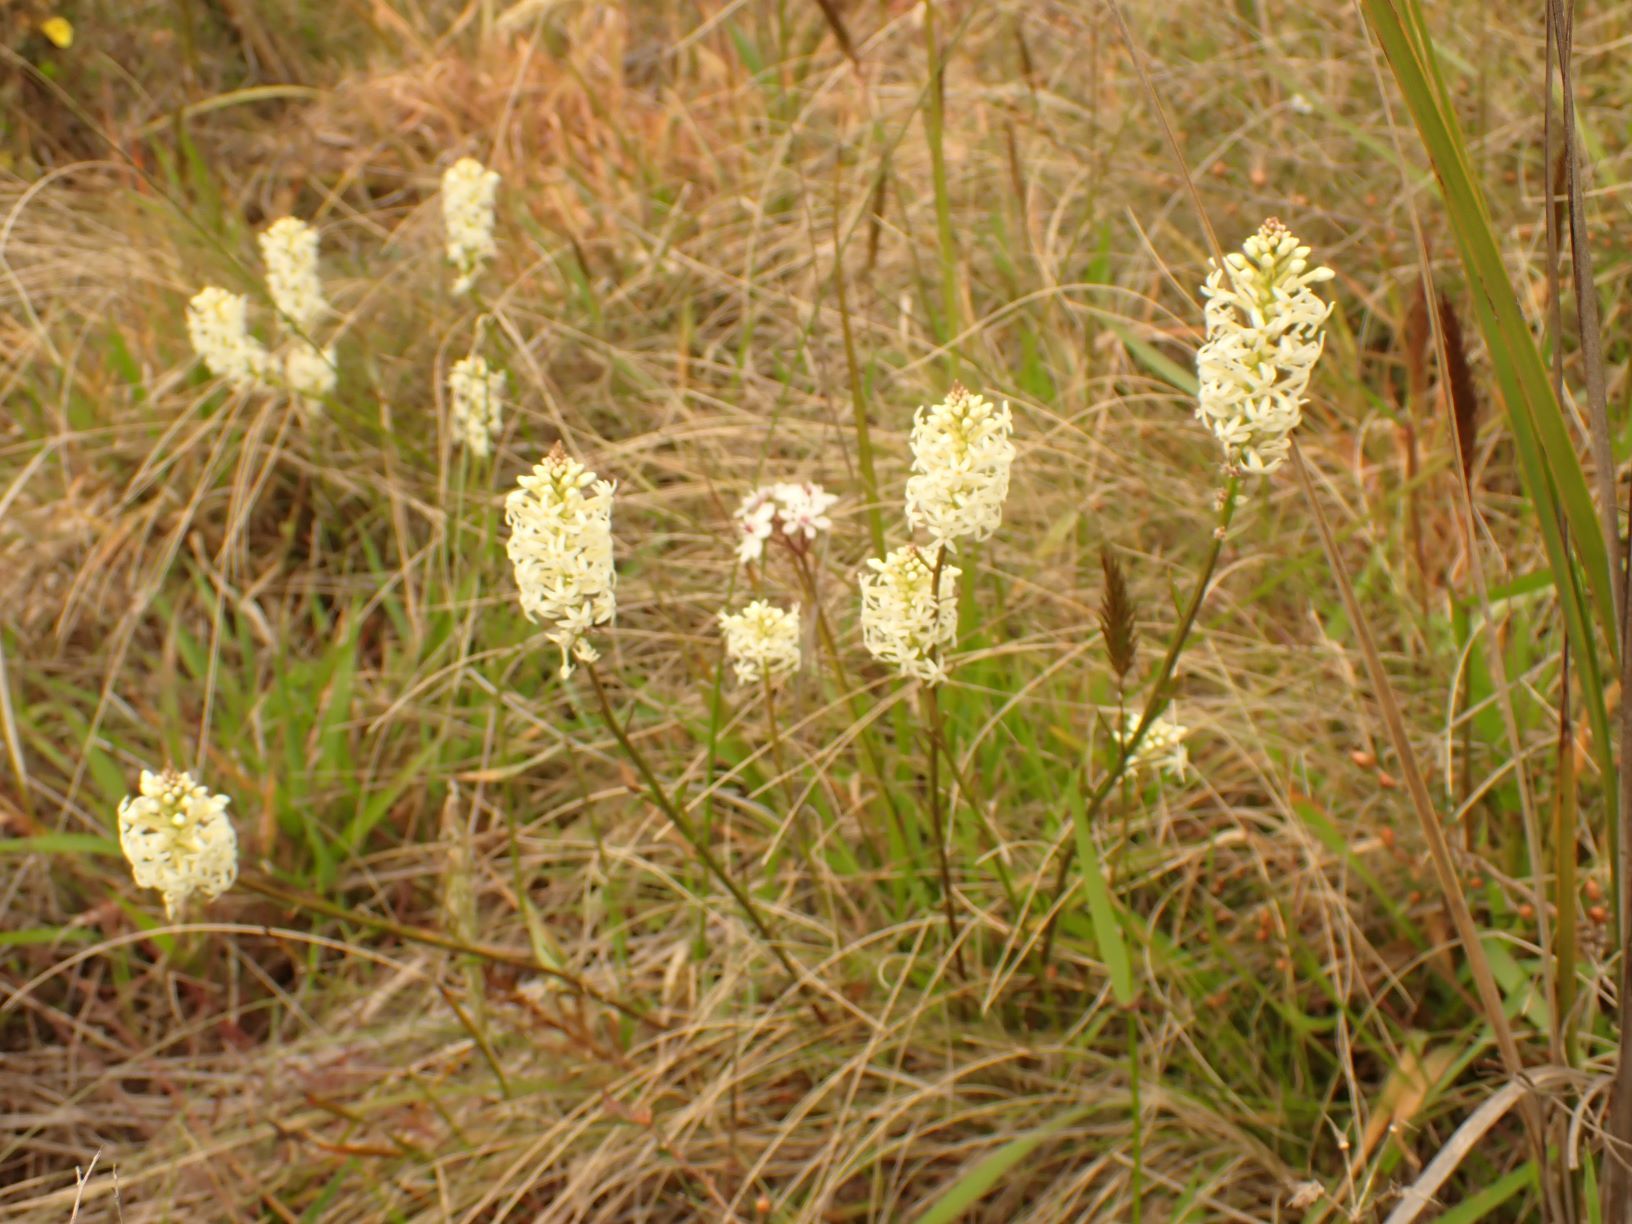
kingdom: Plantae
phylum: Tracheophyta
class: Magnoliopsida
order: Celastrales
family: Celastraceae
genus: Stackhousia
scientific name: Stackhousia monogyna
